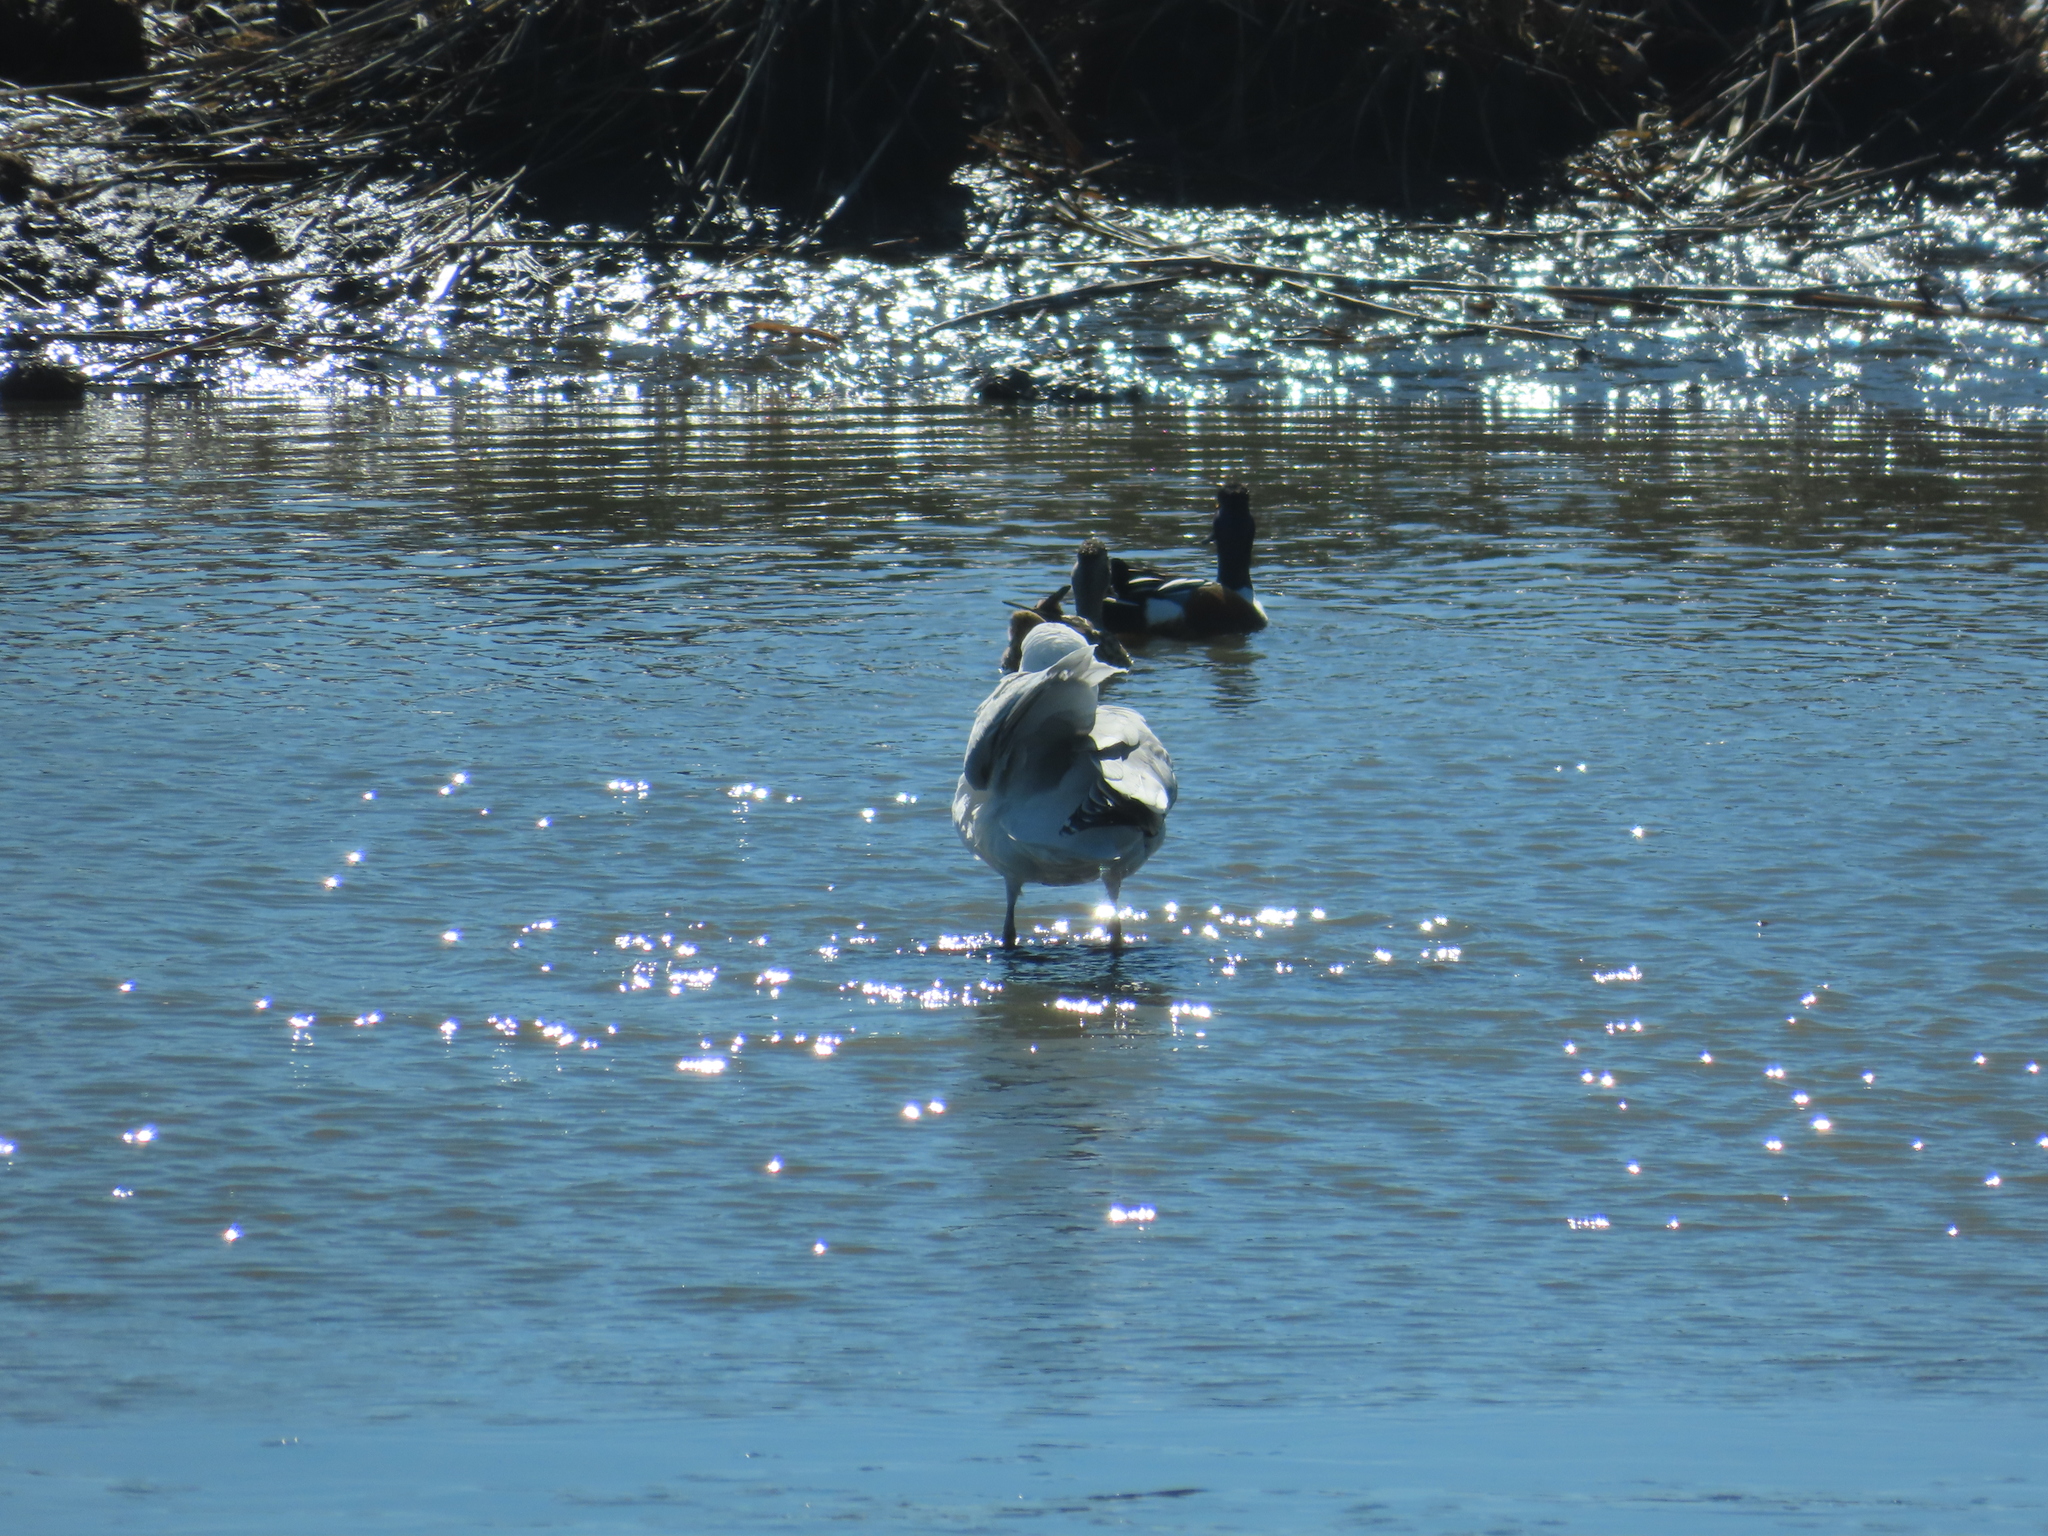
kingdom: Animalia
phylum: Chordata
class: Aves
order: Charadriiformes
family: Laridae
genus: Larus
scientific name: Larus argentatus
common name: Herring gull
